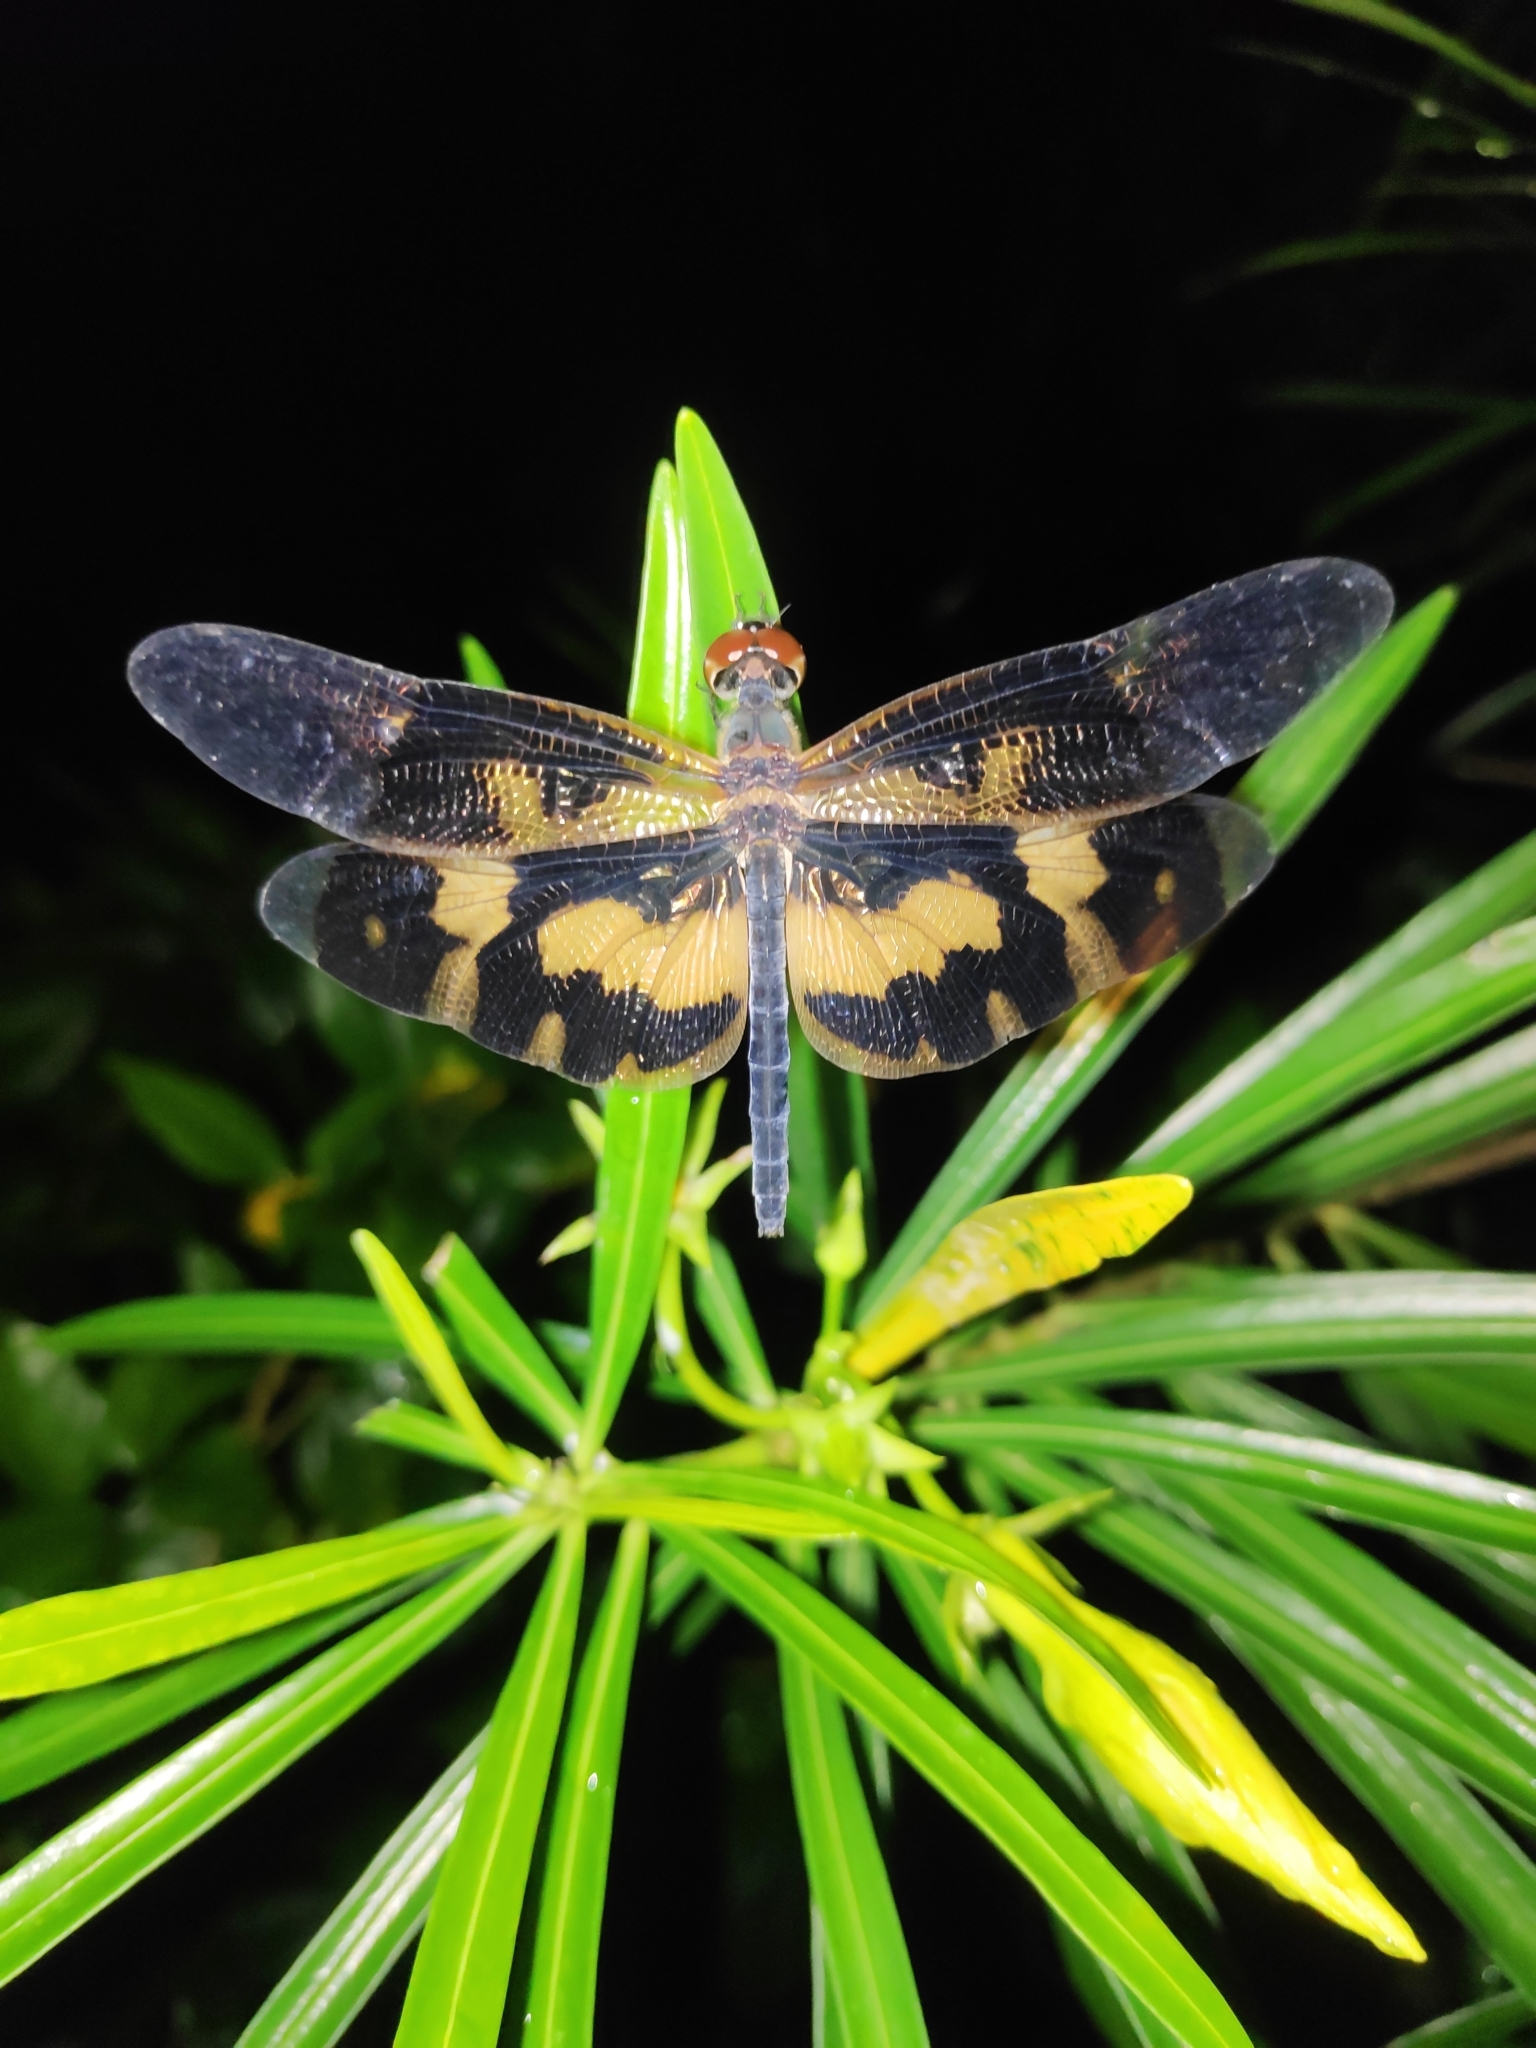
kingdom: Animalia
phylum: Arthropoda
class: Insecta
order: Odonata
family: Libellulidae
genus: Rhyothemis
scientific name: Rhyothemis variegata
